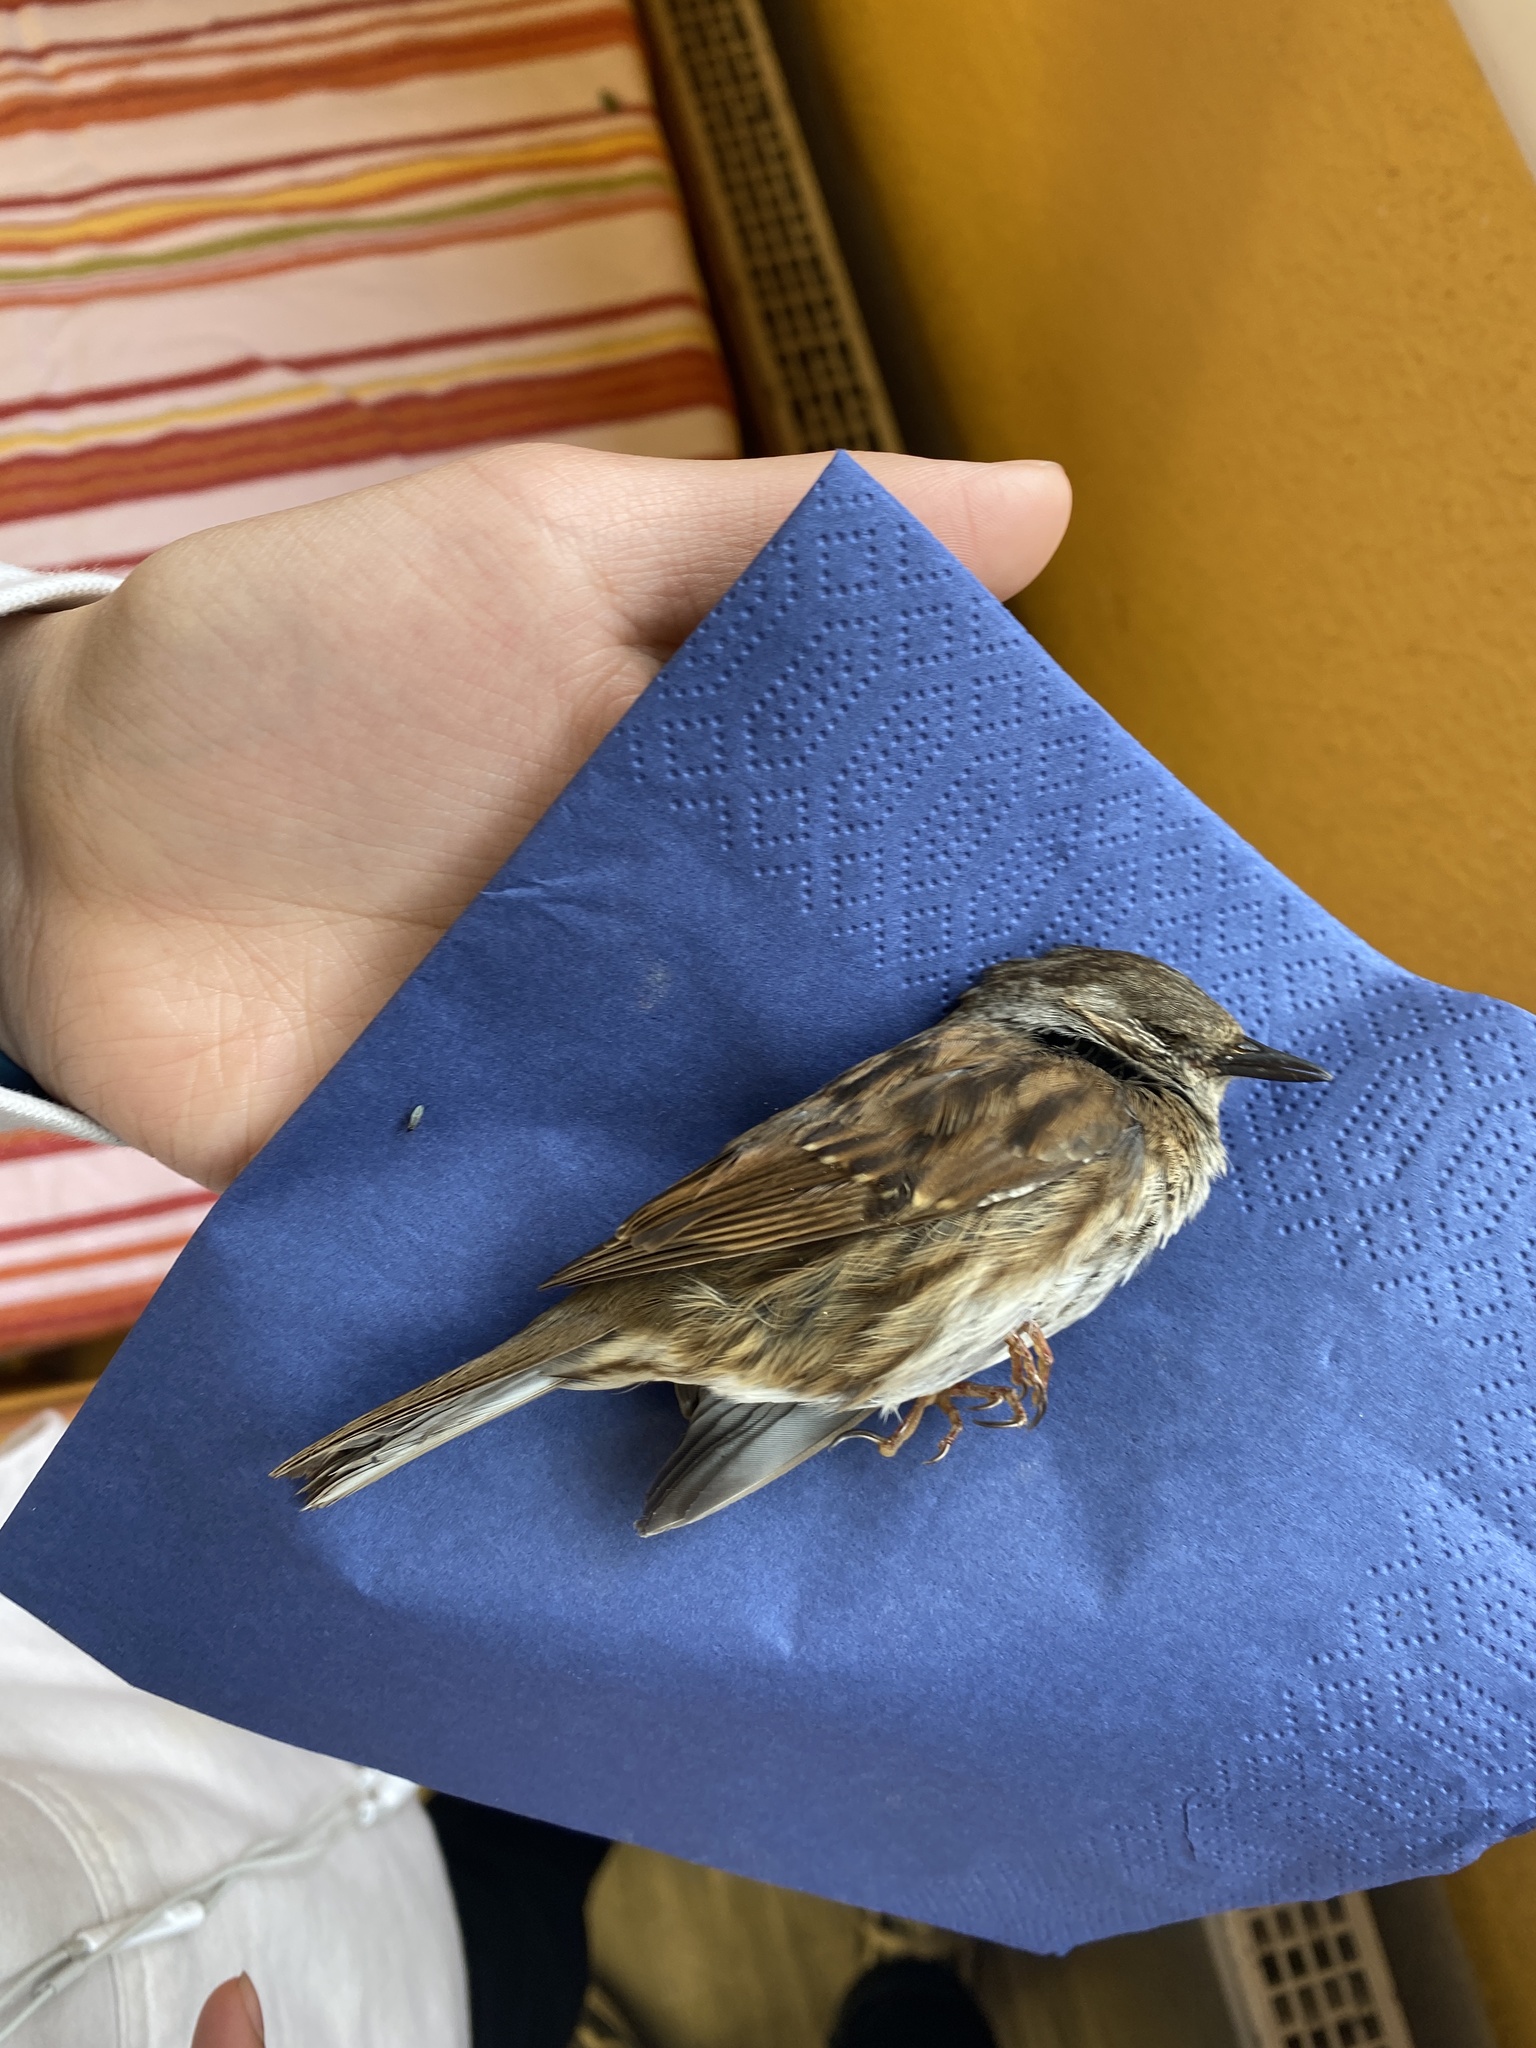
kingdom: Animalia
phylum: Chordata
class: Aves
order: Passeriformes
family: Prunellidae
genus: Prunella
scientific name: Prunella modularis
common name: Dunnock
